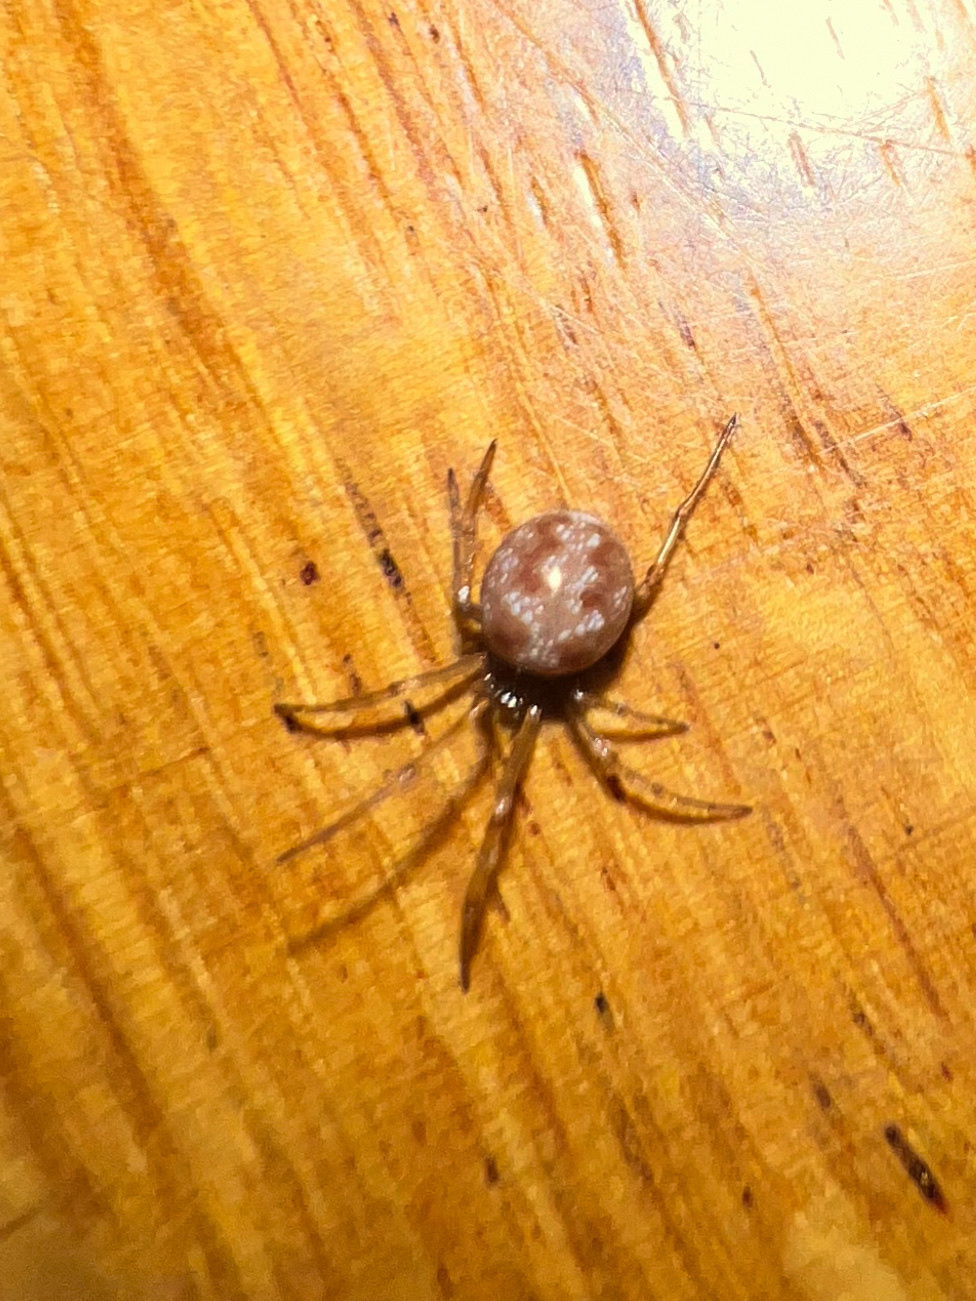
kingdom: Animalia
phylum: Arthropoda
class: Arachnida
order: Araneae
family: Theridiidae
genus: Steatoda
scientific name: Steatoda triangulosa
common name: Triangulate bud spider
